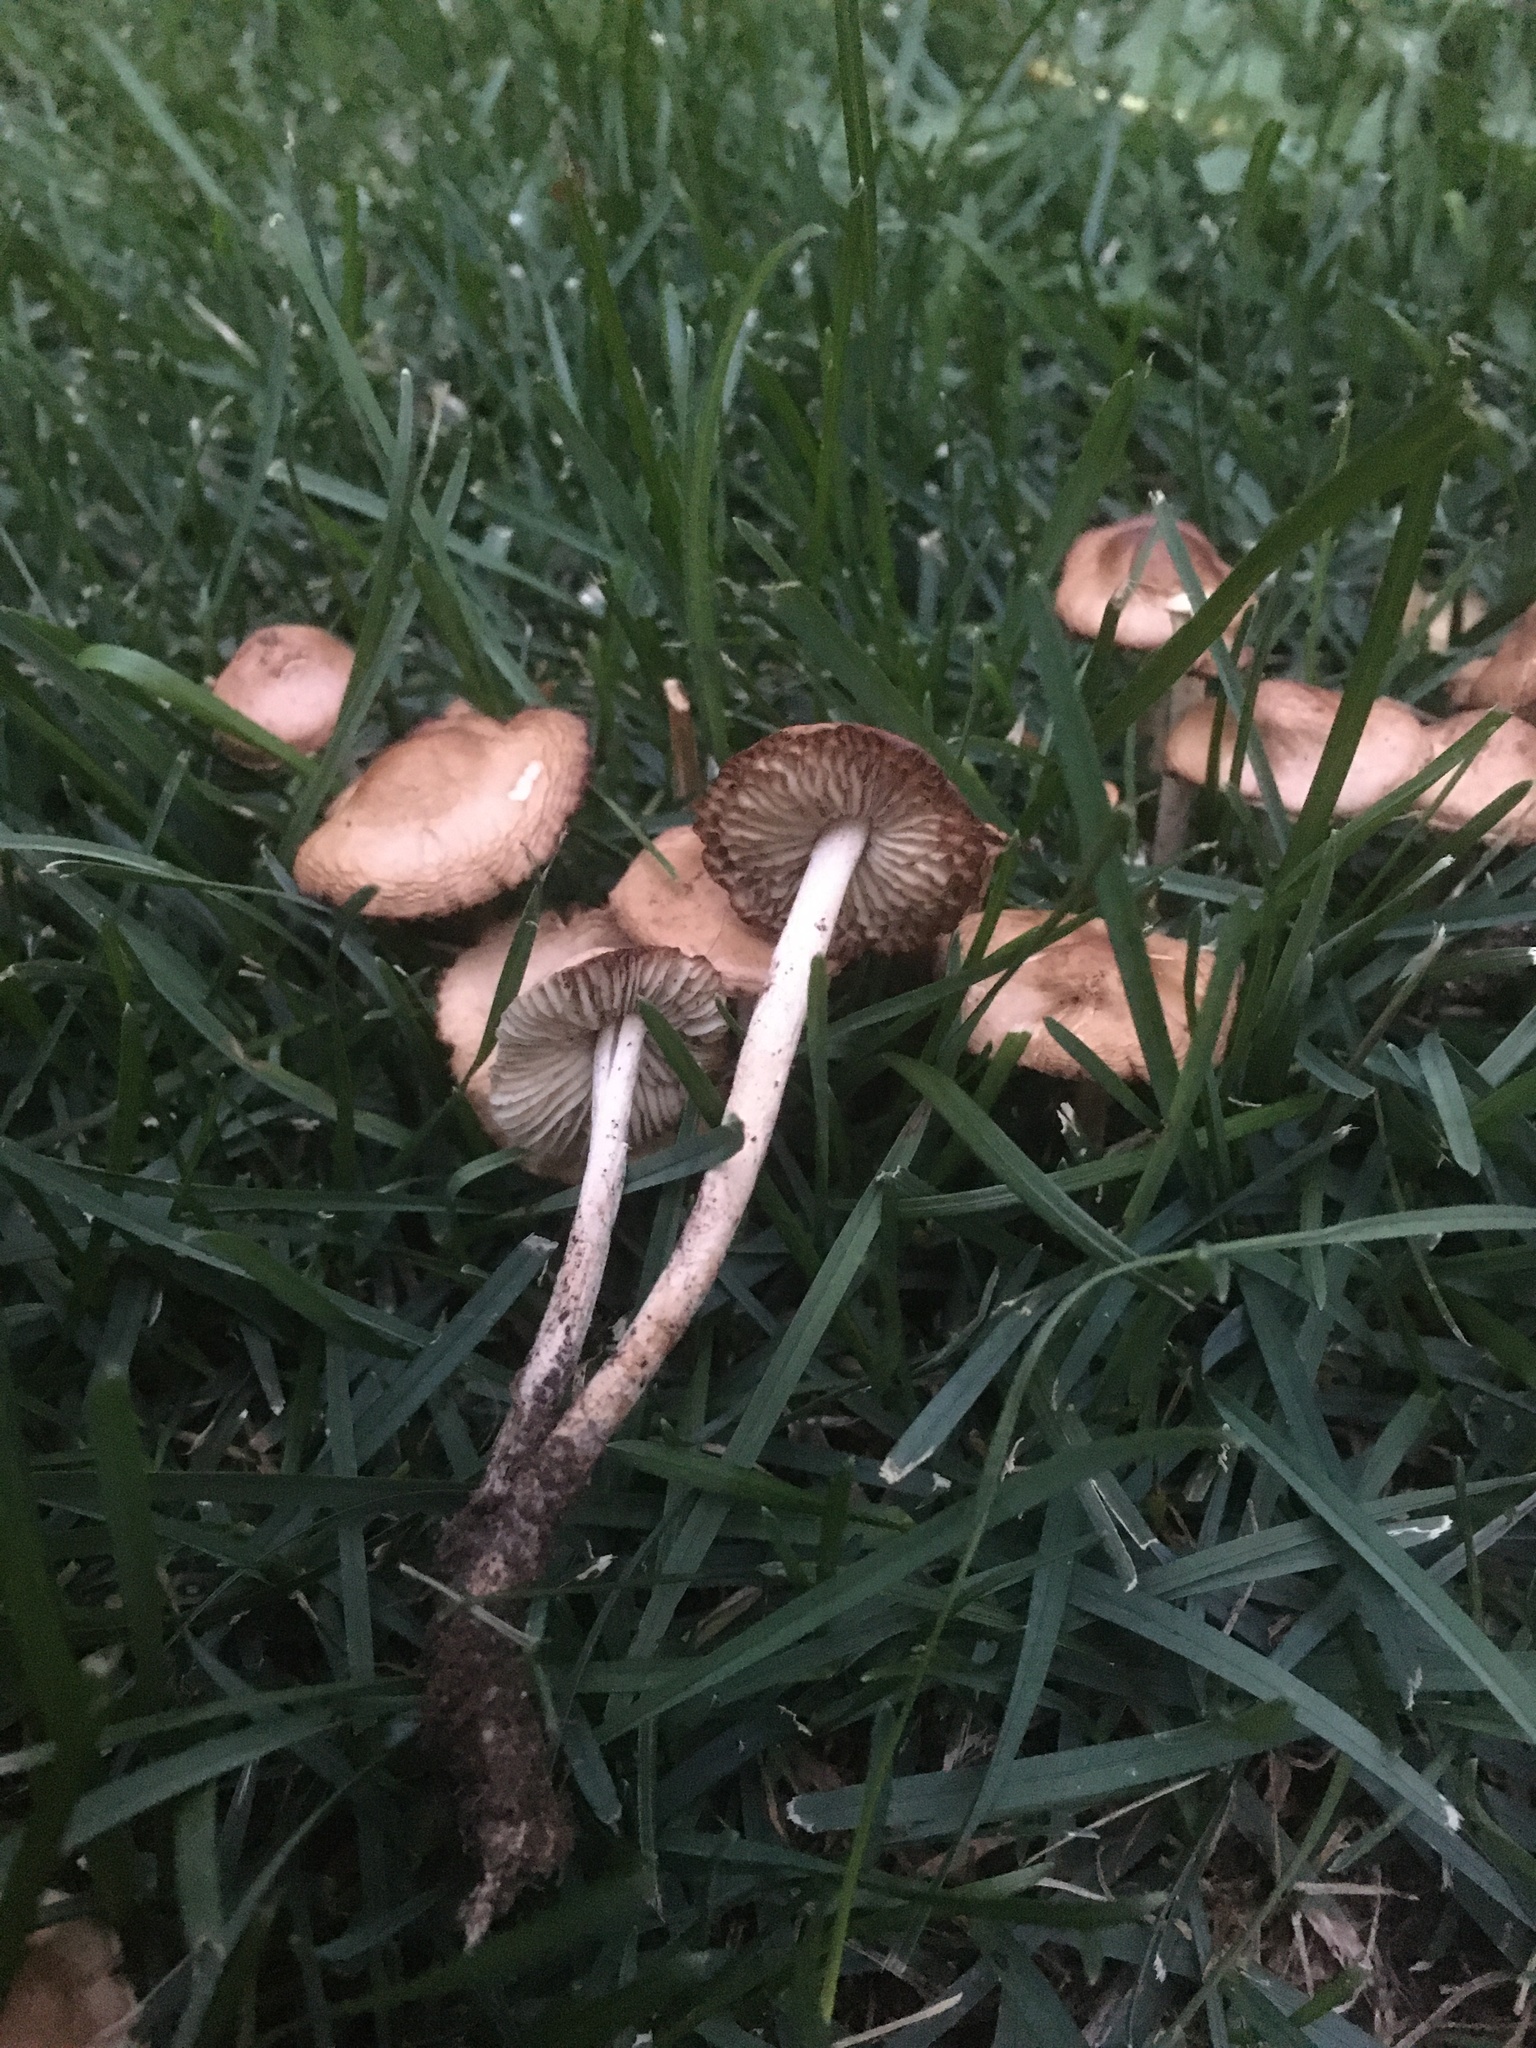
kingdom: Fungi
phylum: Basidiomycota
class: Agaricomycetes
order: Agaricales
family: Marasmiaceae
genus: Marasmius
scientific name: Marasmius oreades
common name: Fairy ring champignon
